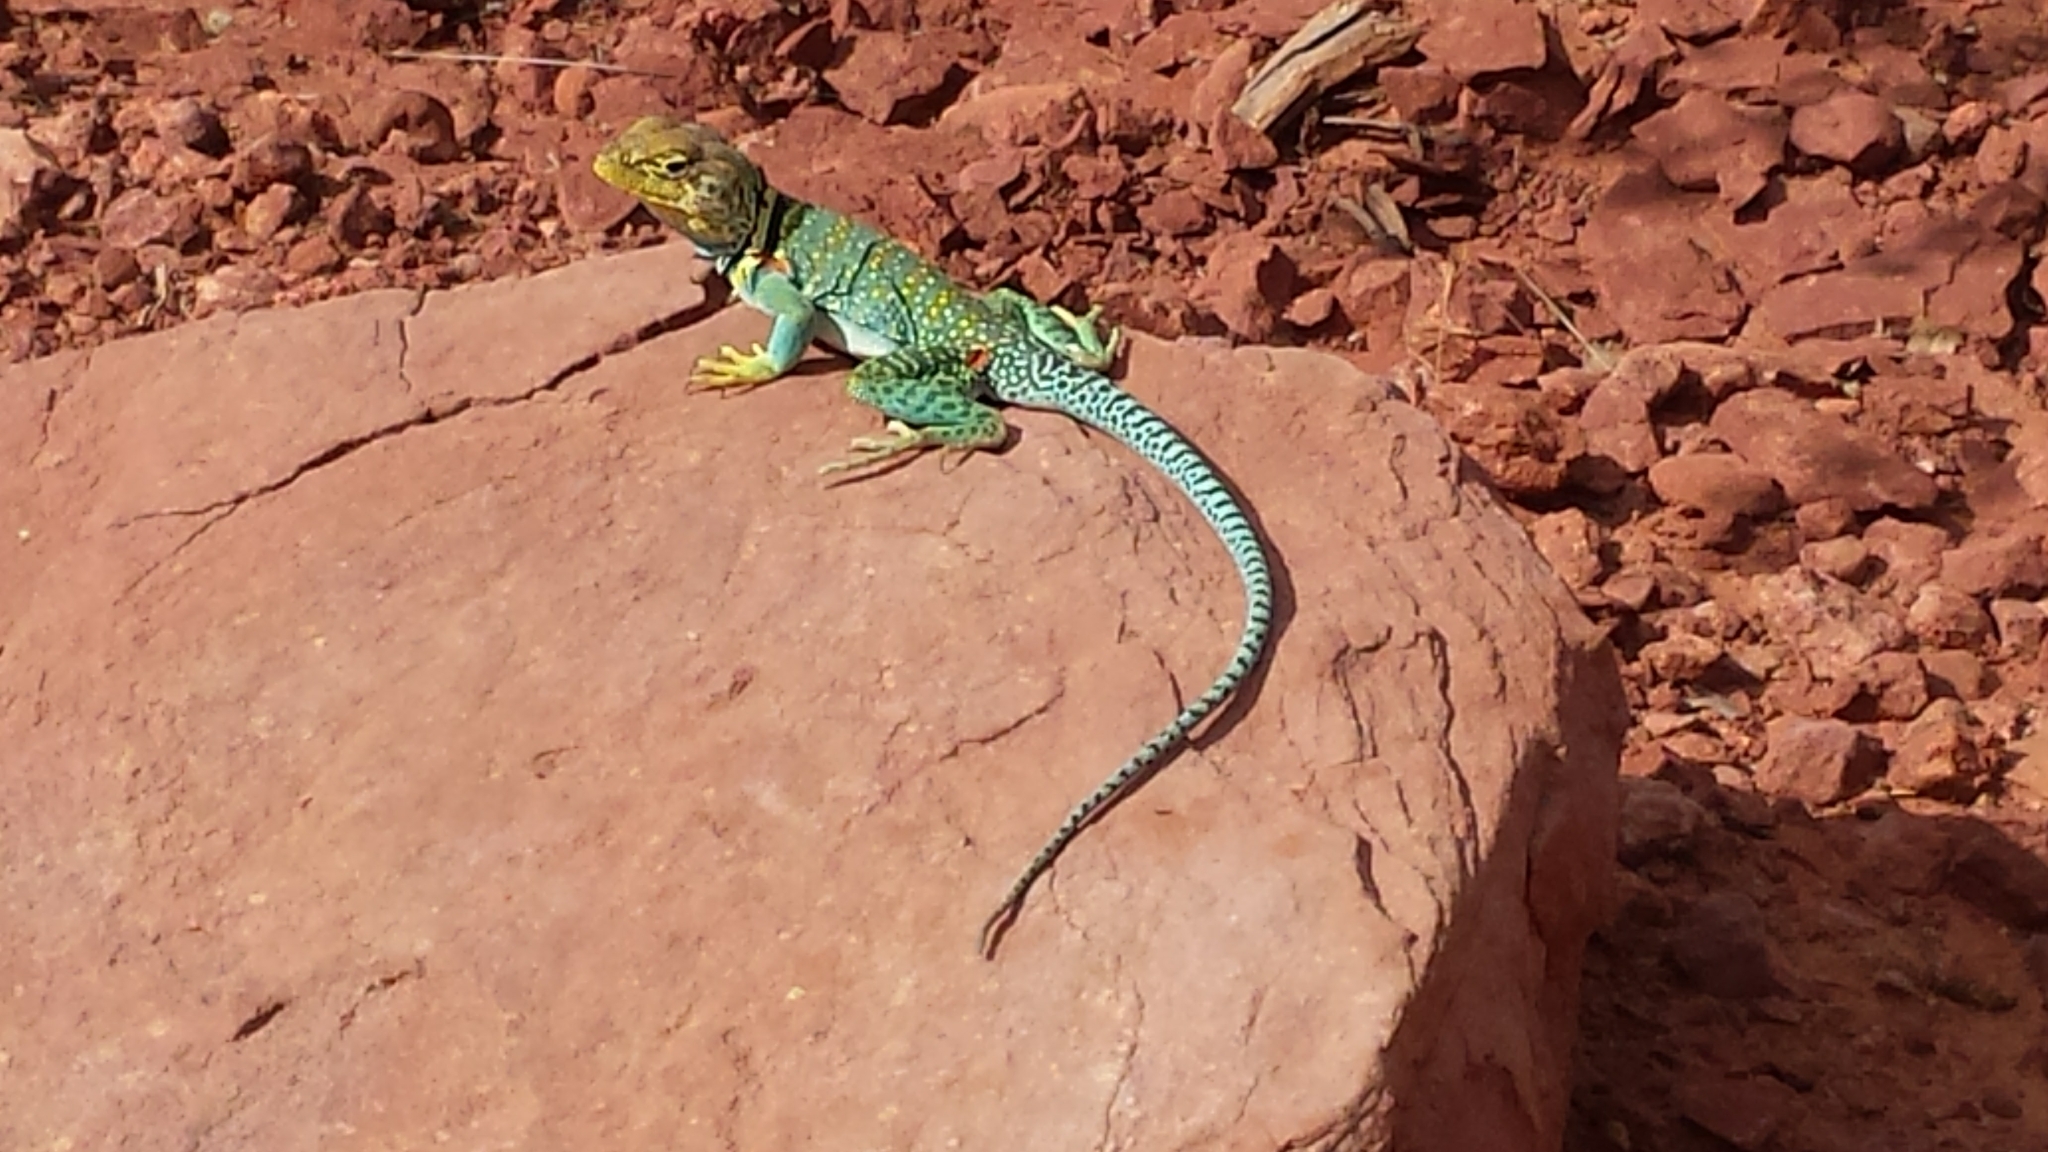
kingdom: Animalia
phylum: Chordata
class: Squamata
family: Crotaphytidae
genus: Crotaphytus
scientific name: Crotaphytus collaris
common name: Collared lizard
